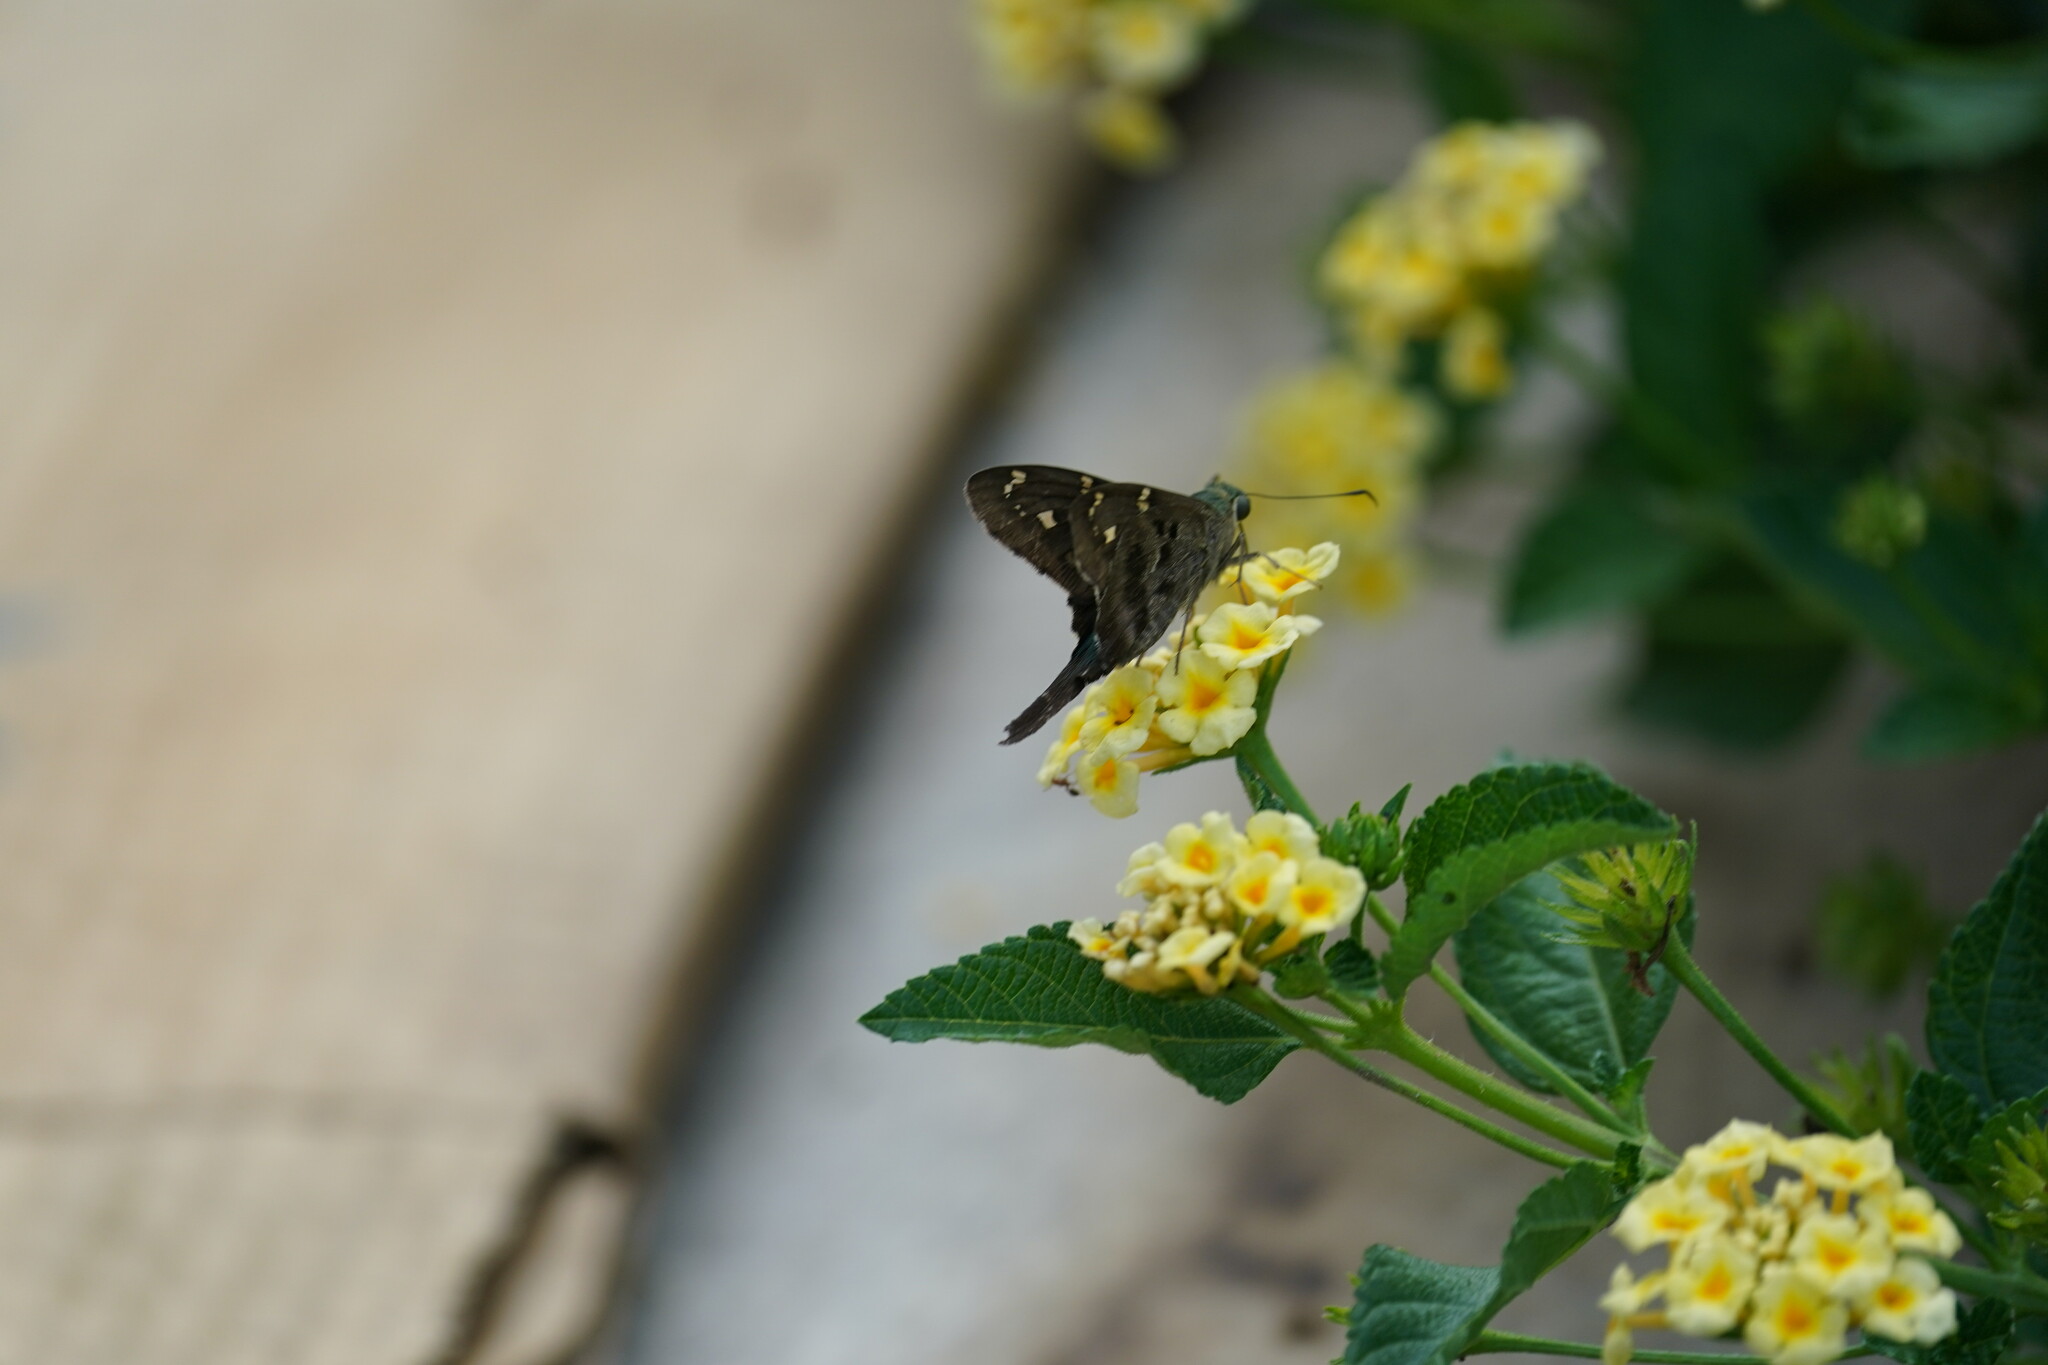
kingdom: Animalia
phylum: Arthropoda
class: Insecta
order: Lepidoptera
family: Hesperiidae
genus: Urbanus
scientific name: Urbanus proteus
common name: Long-tailed skipper
